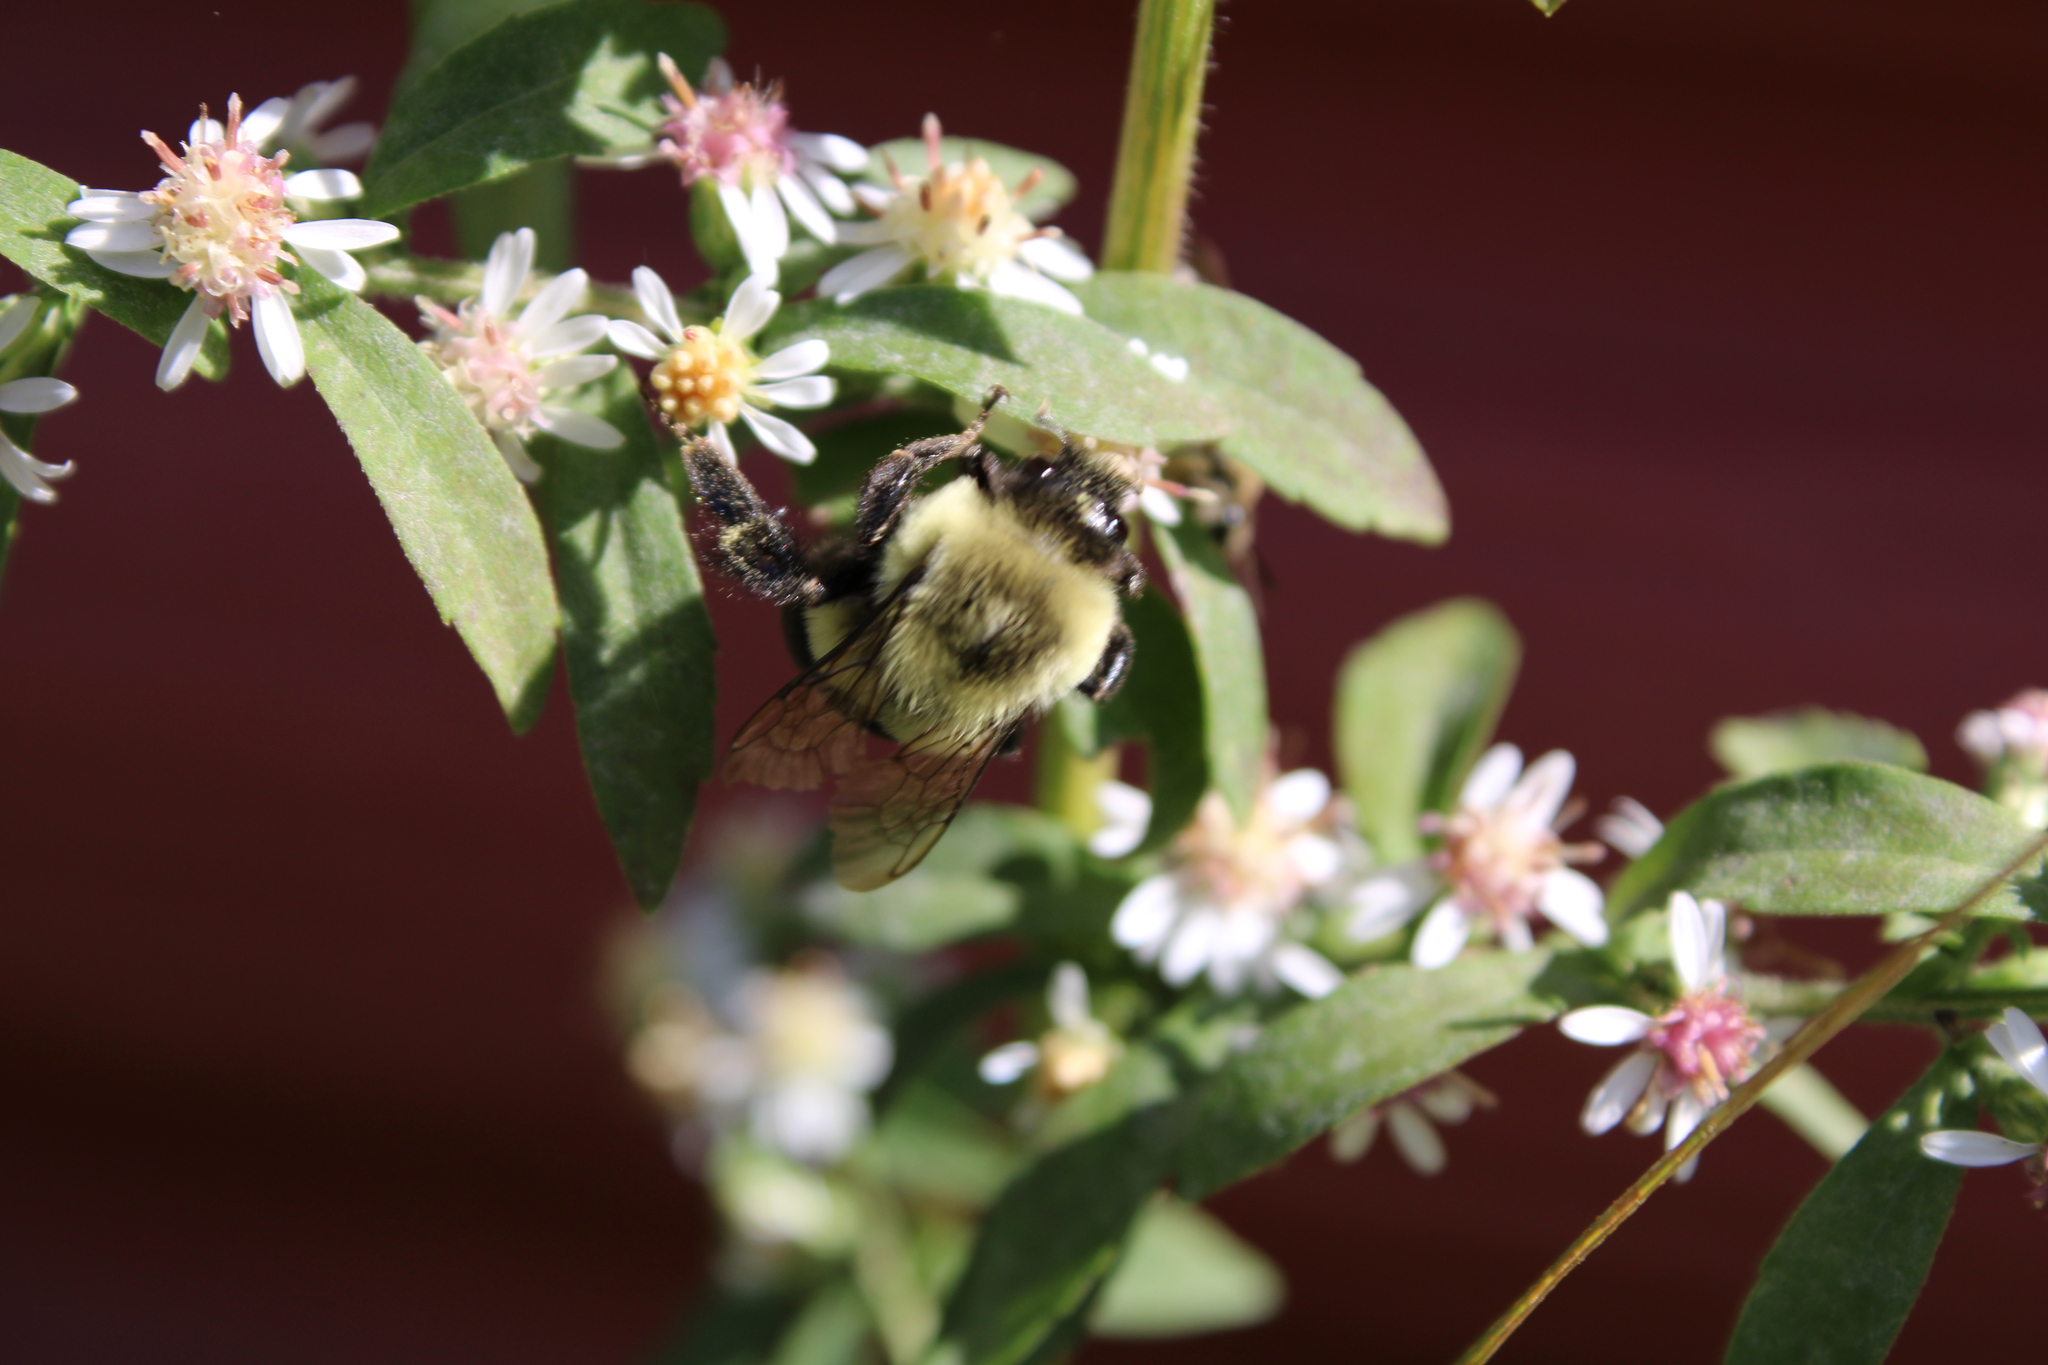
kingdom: Animalia
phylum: Arthropoda
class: Insecta
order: Hymenoptera
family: Apidae
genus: Bombus
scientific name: Bombus impatiens
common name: Common eastern bumble bee
